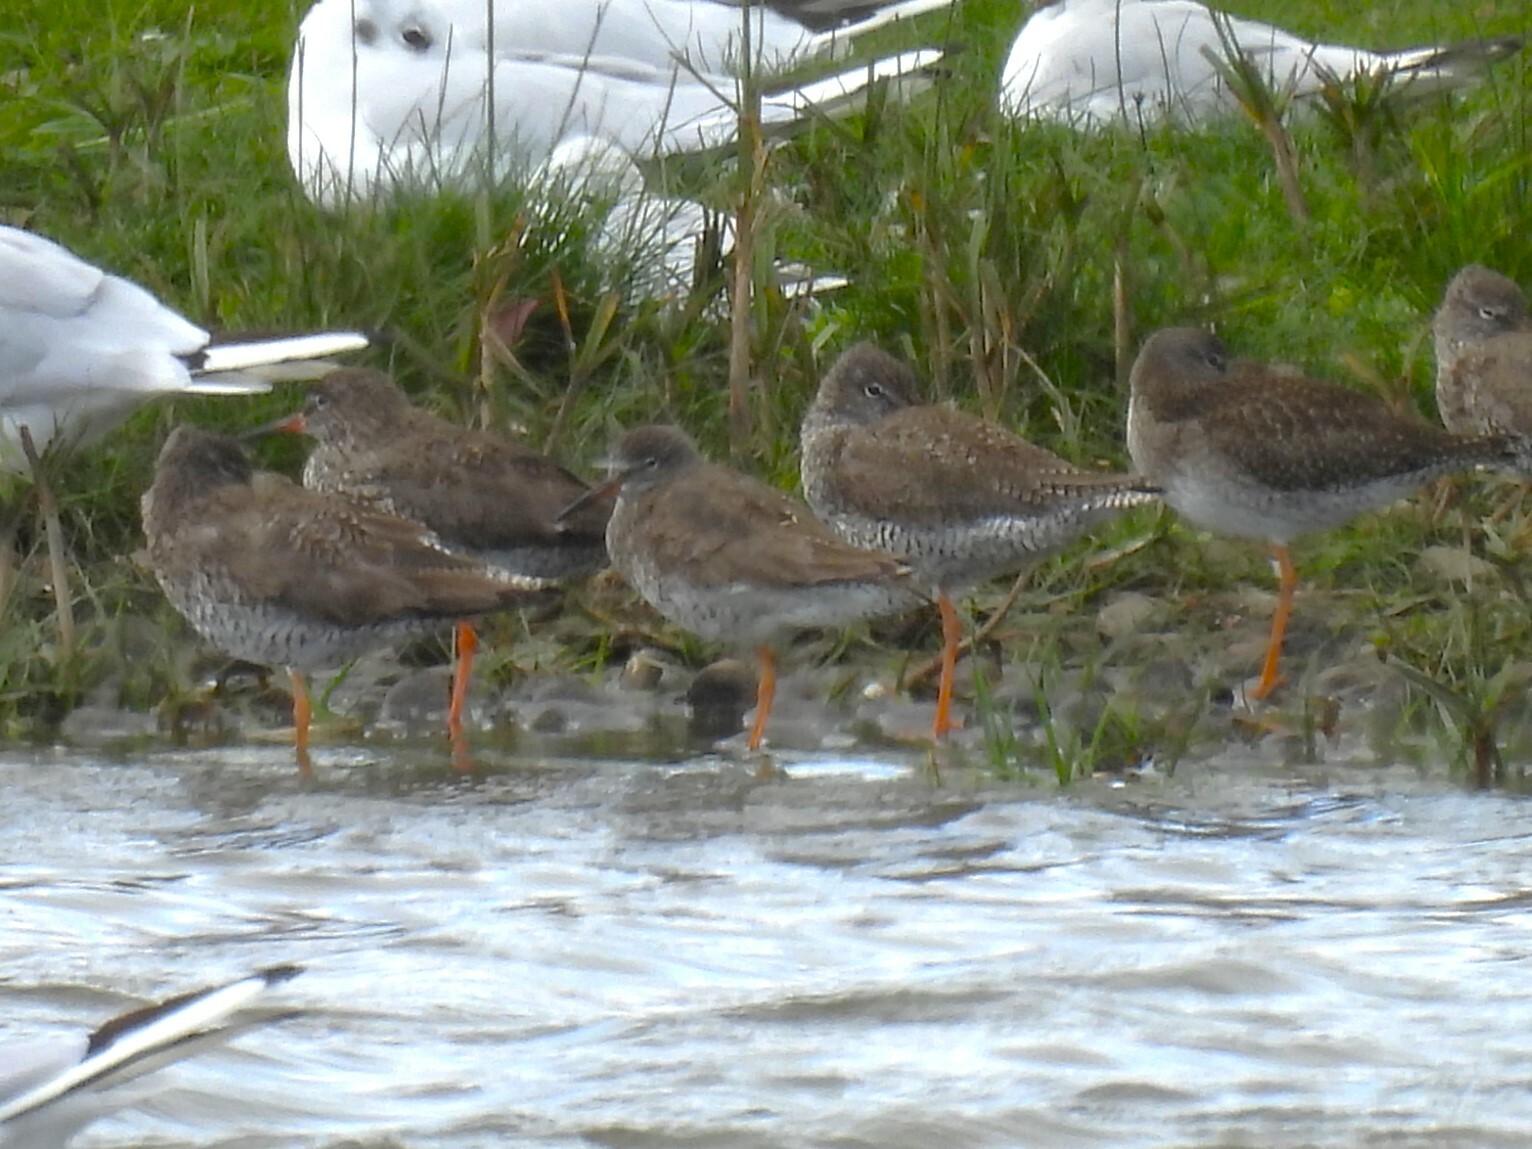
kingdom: Animalia
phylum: Chordata
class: Aves
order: Charadriiformes
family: Scolopacidae
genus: Tringa
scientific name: Tringa totanus
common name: Common redshank
